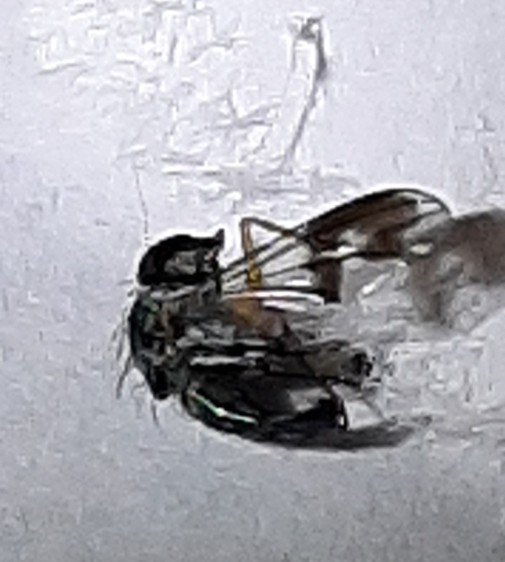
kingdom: Animalia
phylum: Arthropoda
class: Insecta
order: Diptera
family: Dolichopodidae
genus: Condylostylus
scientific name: Condylostylus
